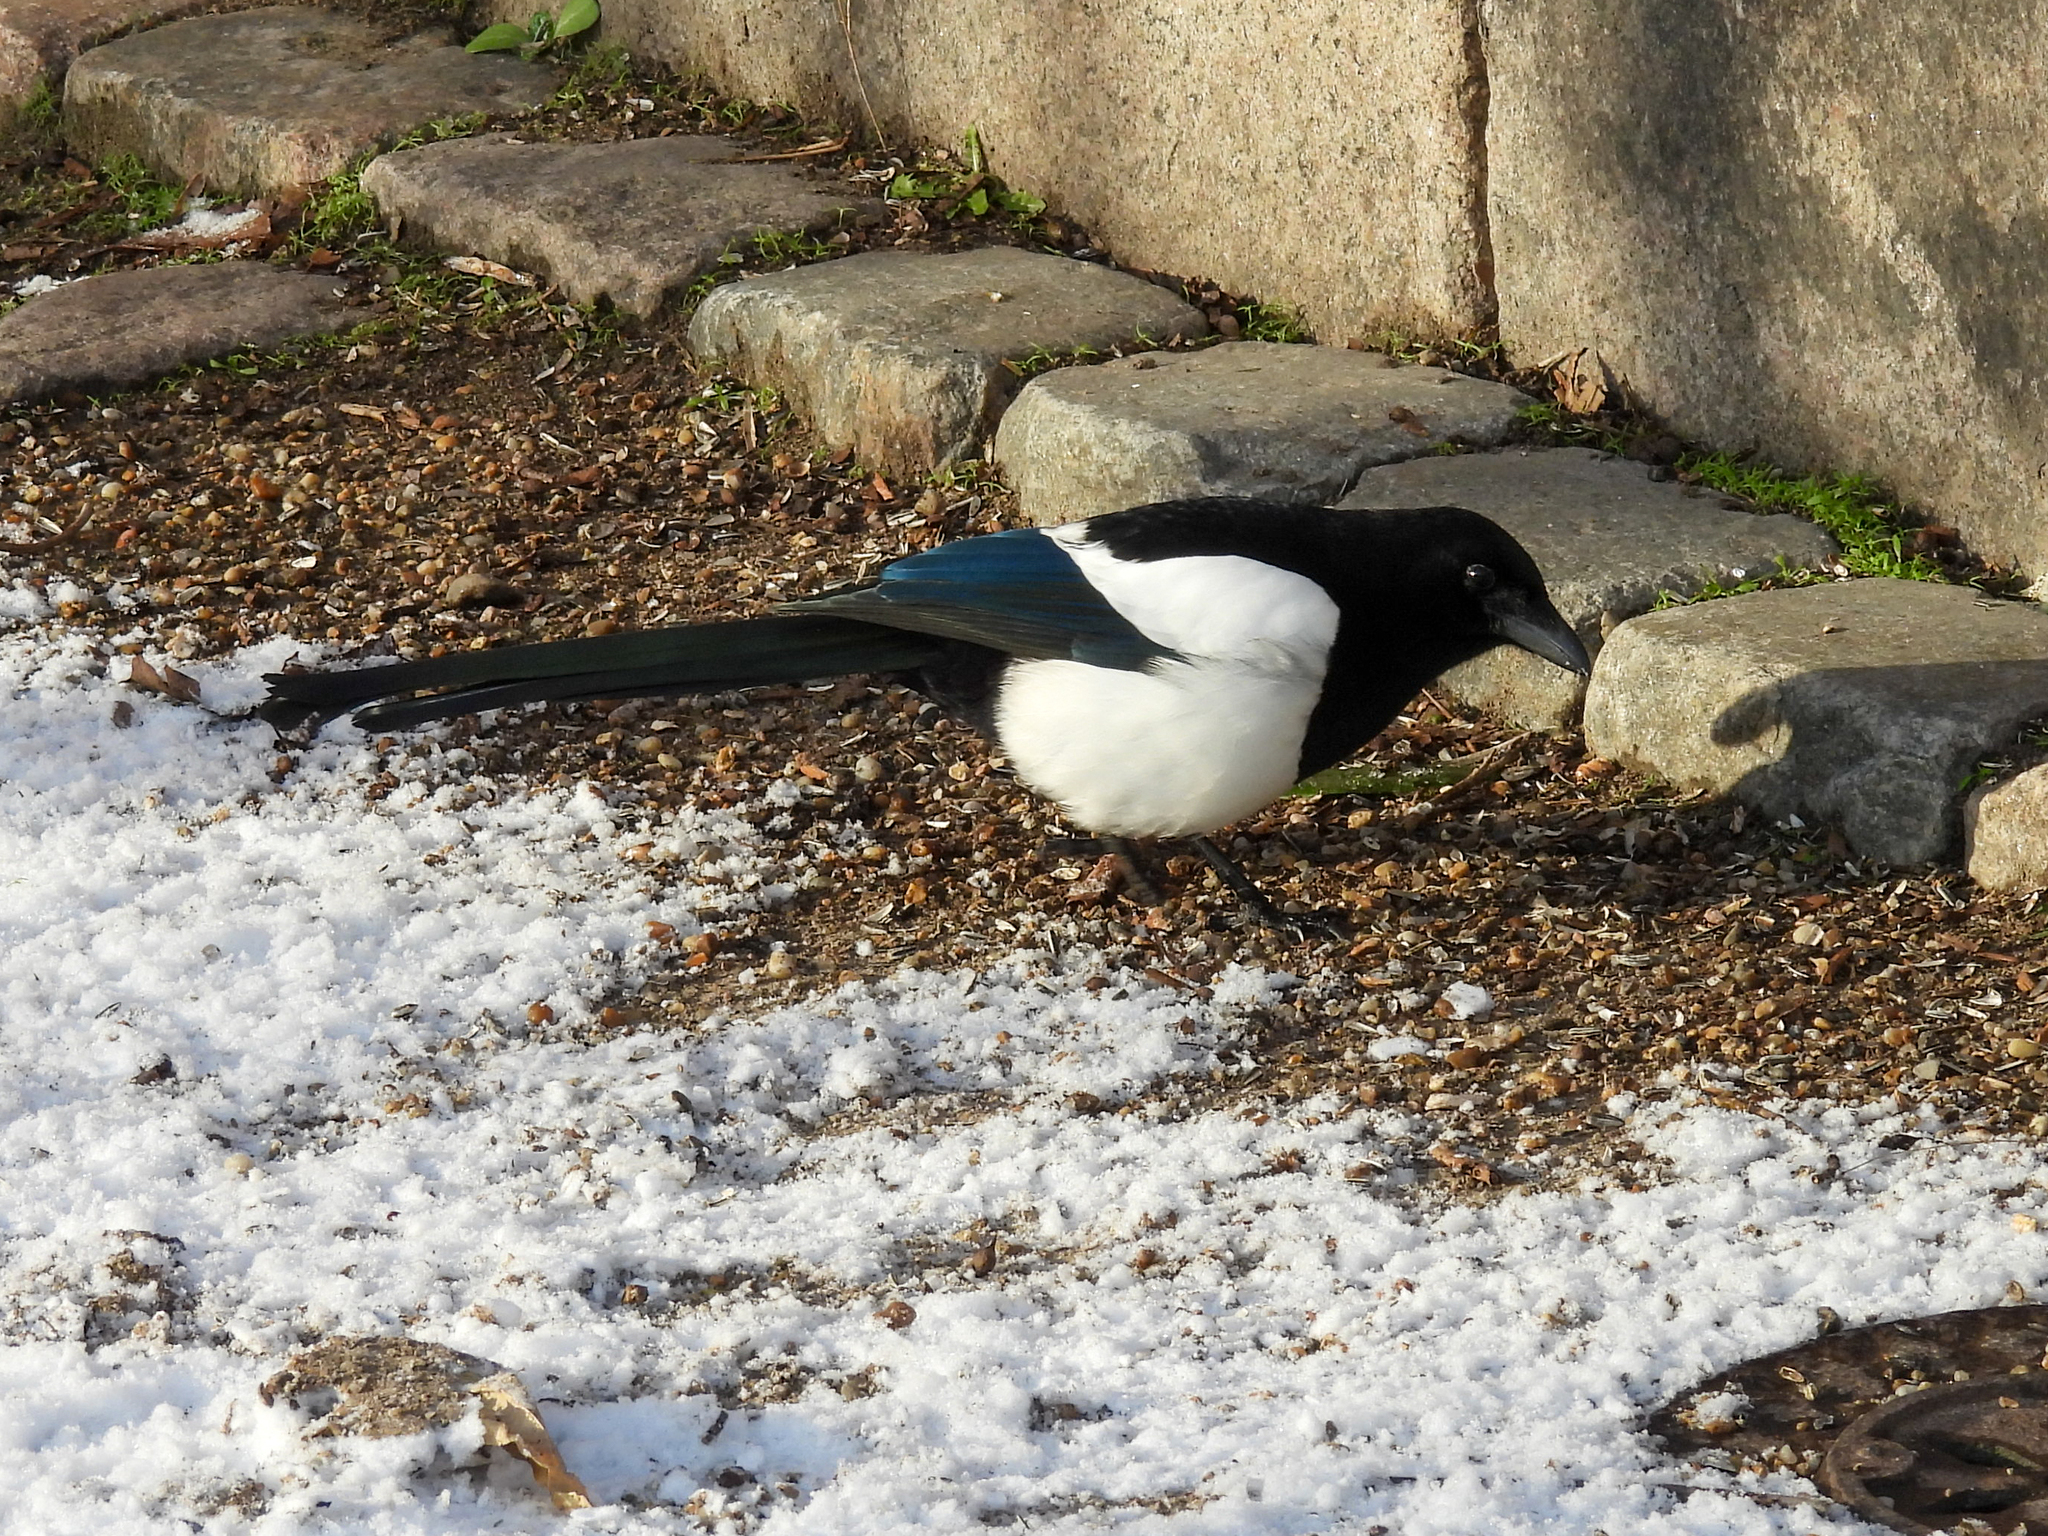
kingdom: Animalia
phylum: Chordata
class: Aves
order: Passeriformes
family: Corvidae
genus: Pica
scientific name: Pica pica
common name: Eurasian magpie
